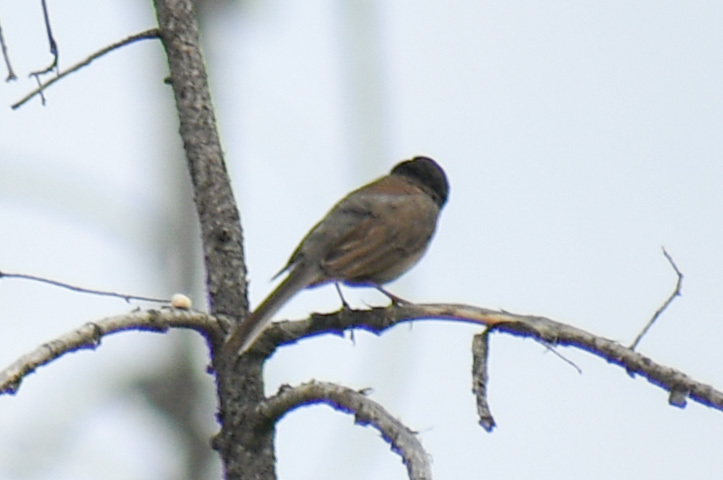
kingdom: Animalia
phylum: Chordata
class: Aves
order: Passeriformes
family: Passerellidae
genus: Junco
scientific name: Junco hyemalis
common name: Dark-eyed junco
